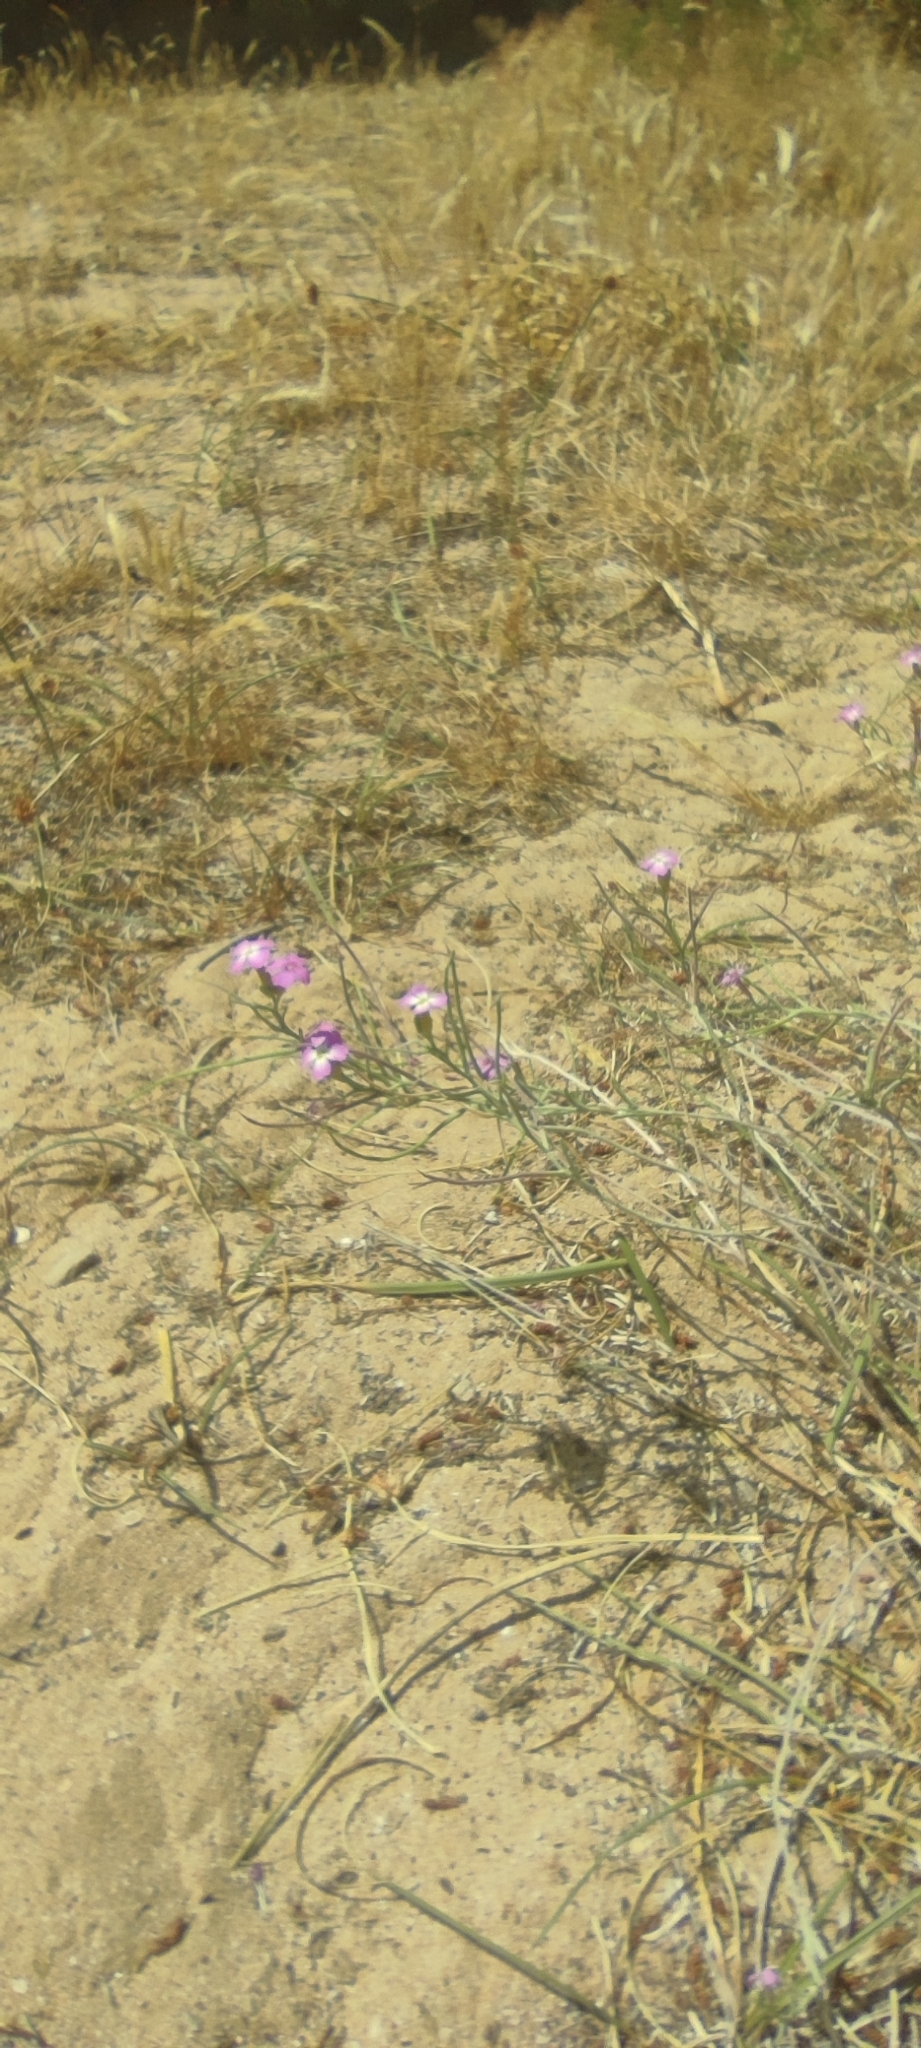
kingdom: Plantae
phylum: Tracheophyta
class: Magnoliopsida
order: Brassicales
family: Brassicaceae
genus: Marcuskochia
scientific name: Marcuskochia littorea
